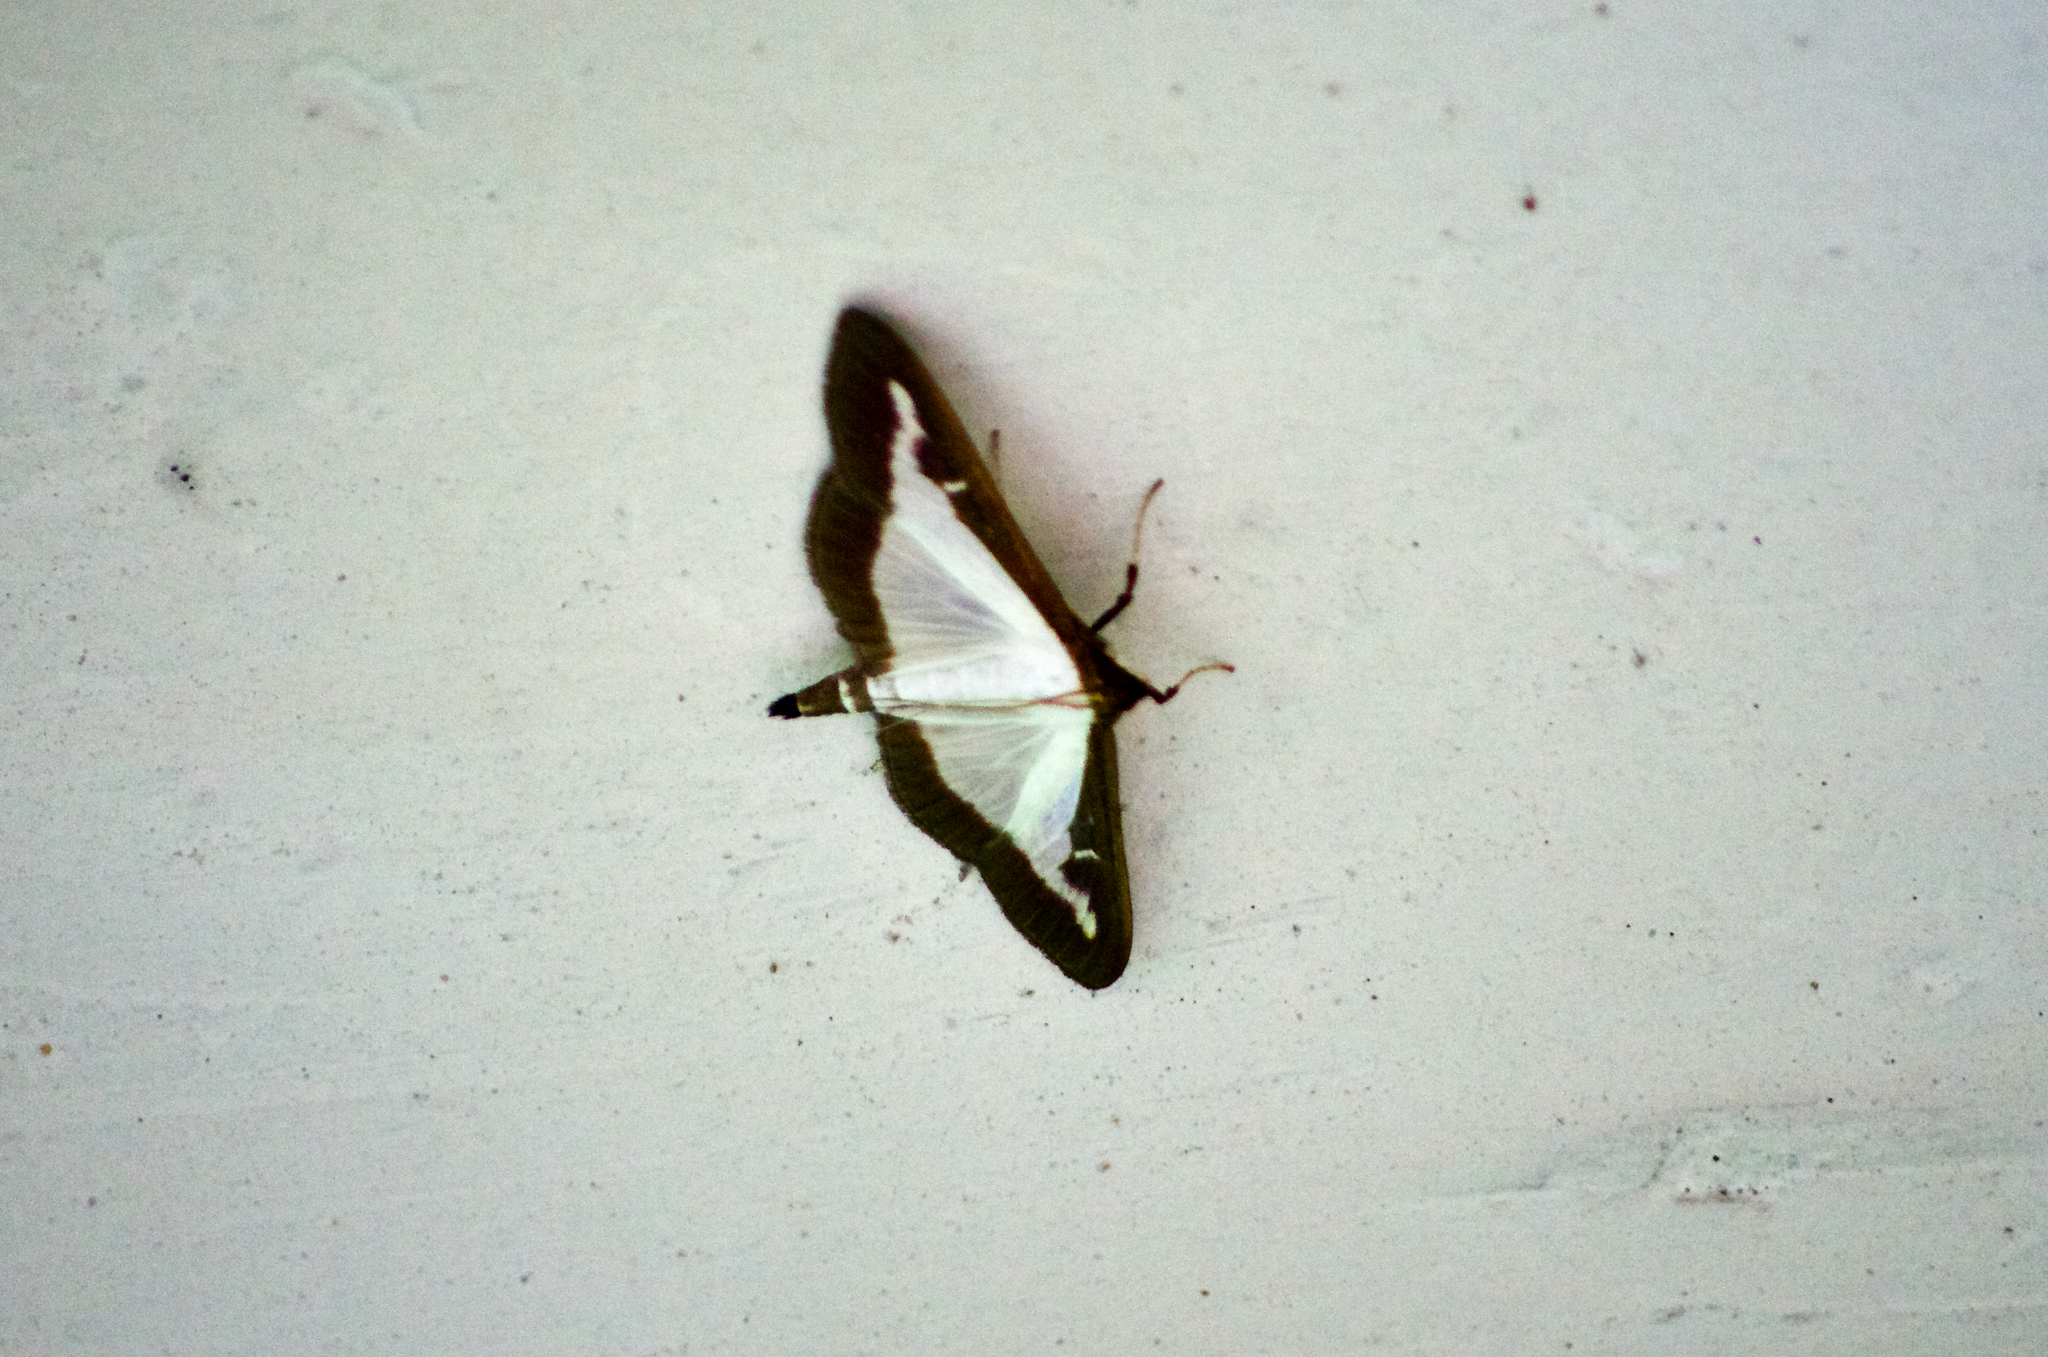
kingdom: Animalia
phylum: Arthropoda
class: Insecta
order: Lepidoptera
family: Crambidae
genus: Cydalima
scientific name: Cydalima perspectalis
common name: Box tree moth
